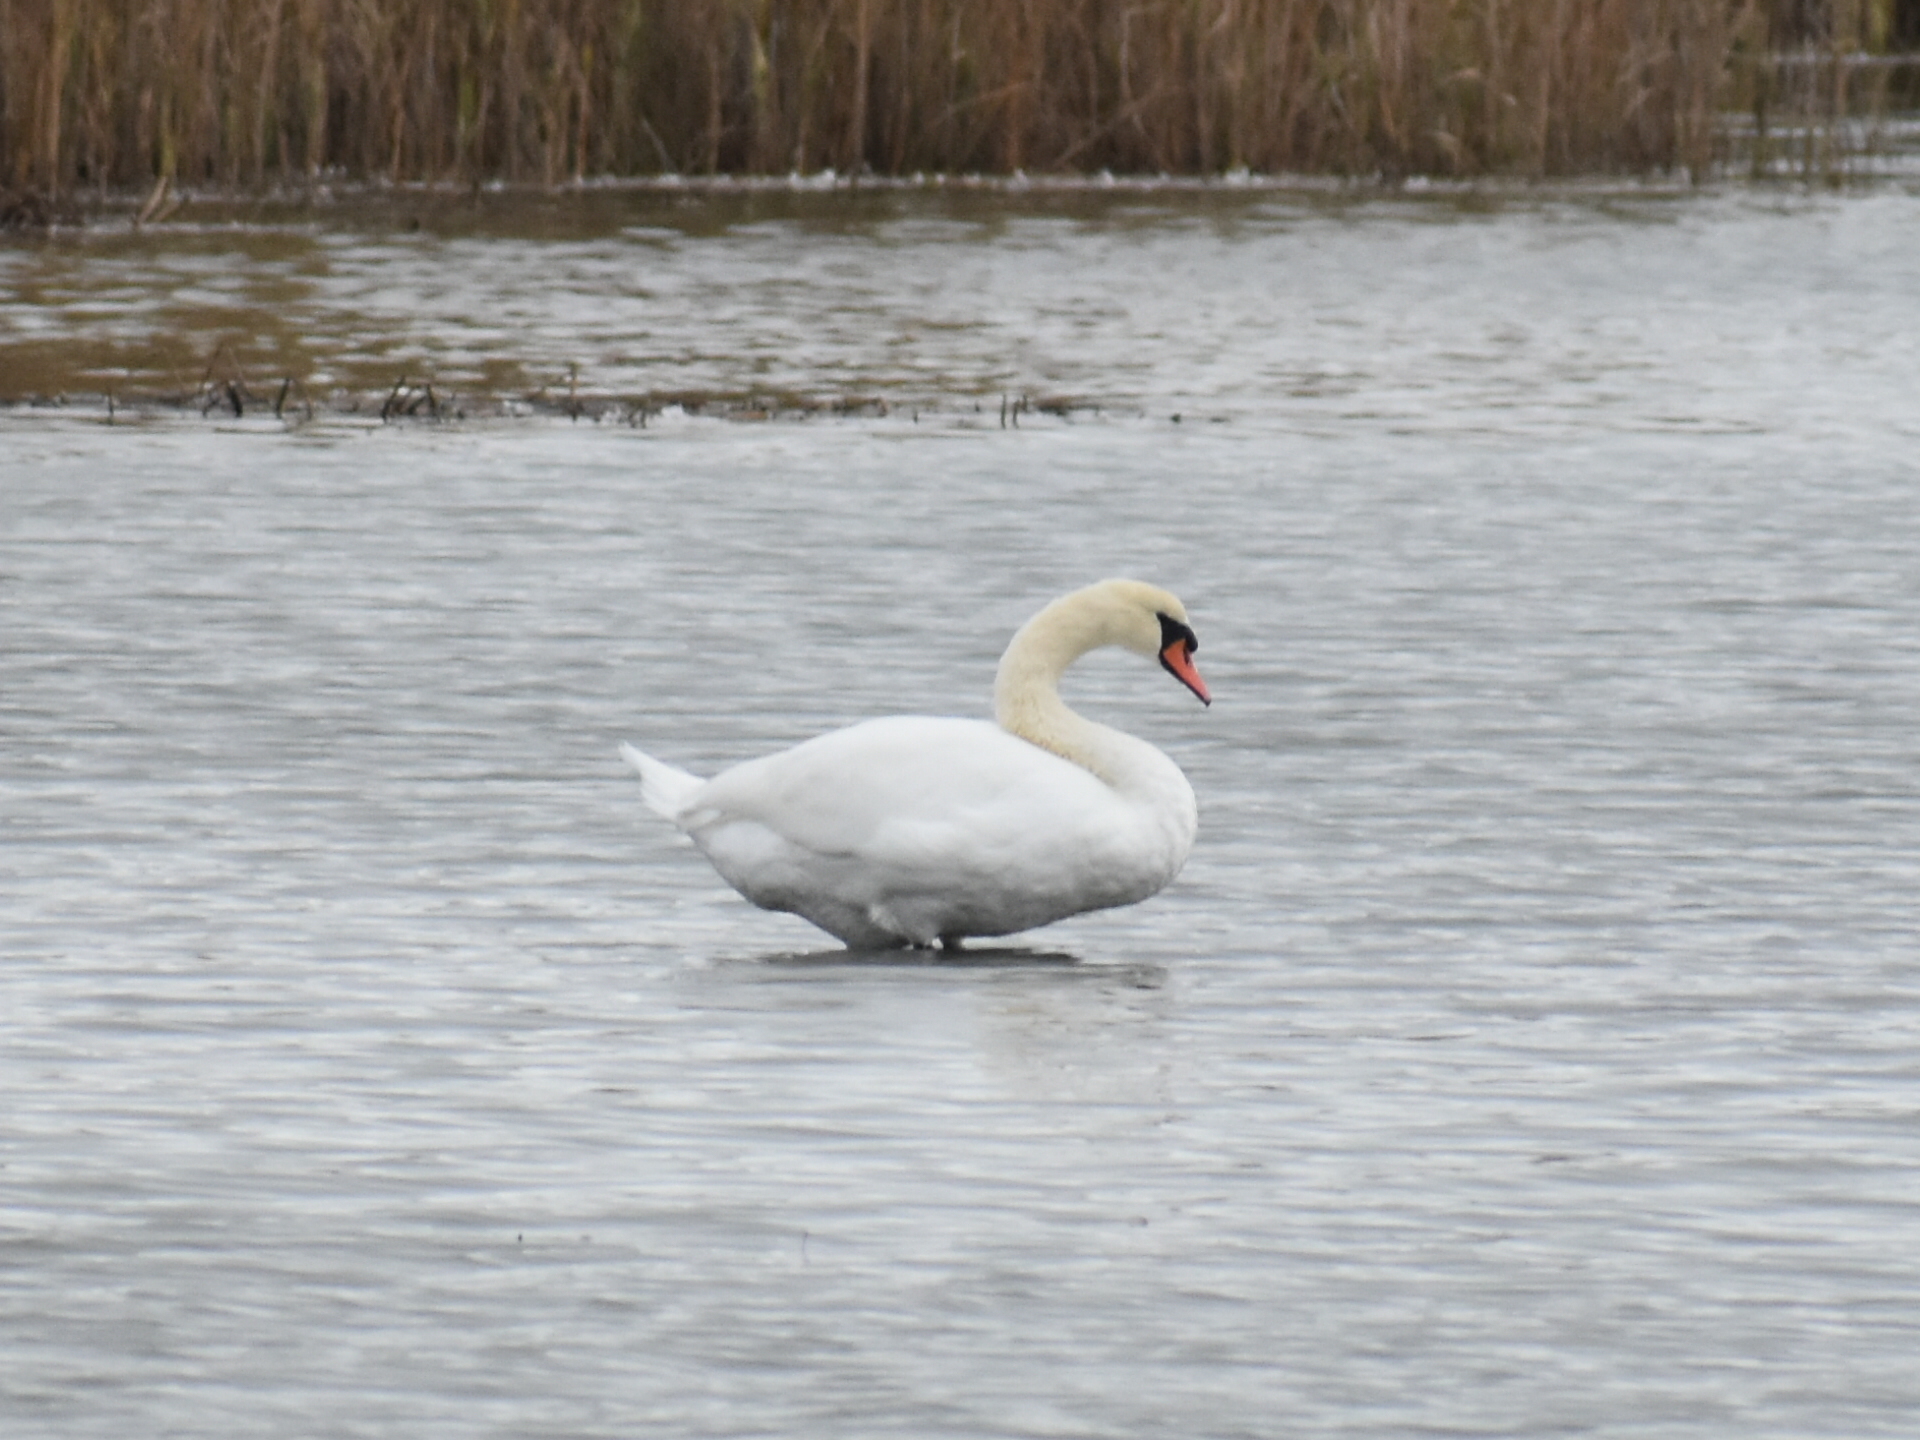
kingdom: Animalia
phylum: Chordata
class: Aves
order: Anseriformes
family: Anatidae
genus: Cygnus
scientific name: Cygnus olor
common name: Mute swan
